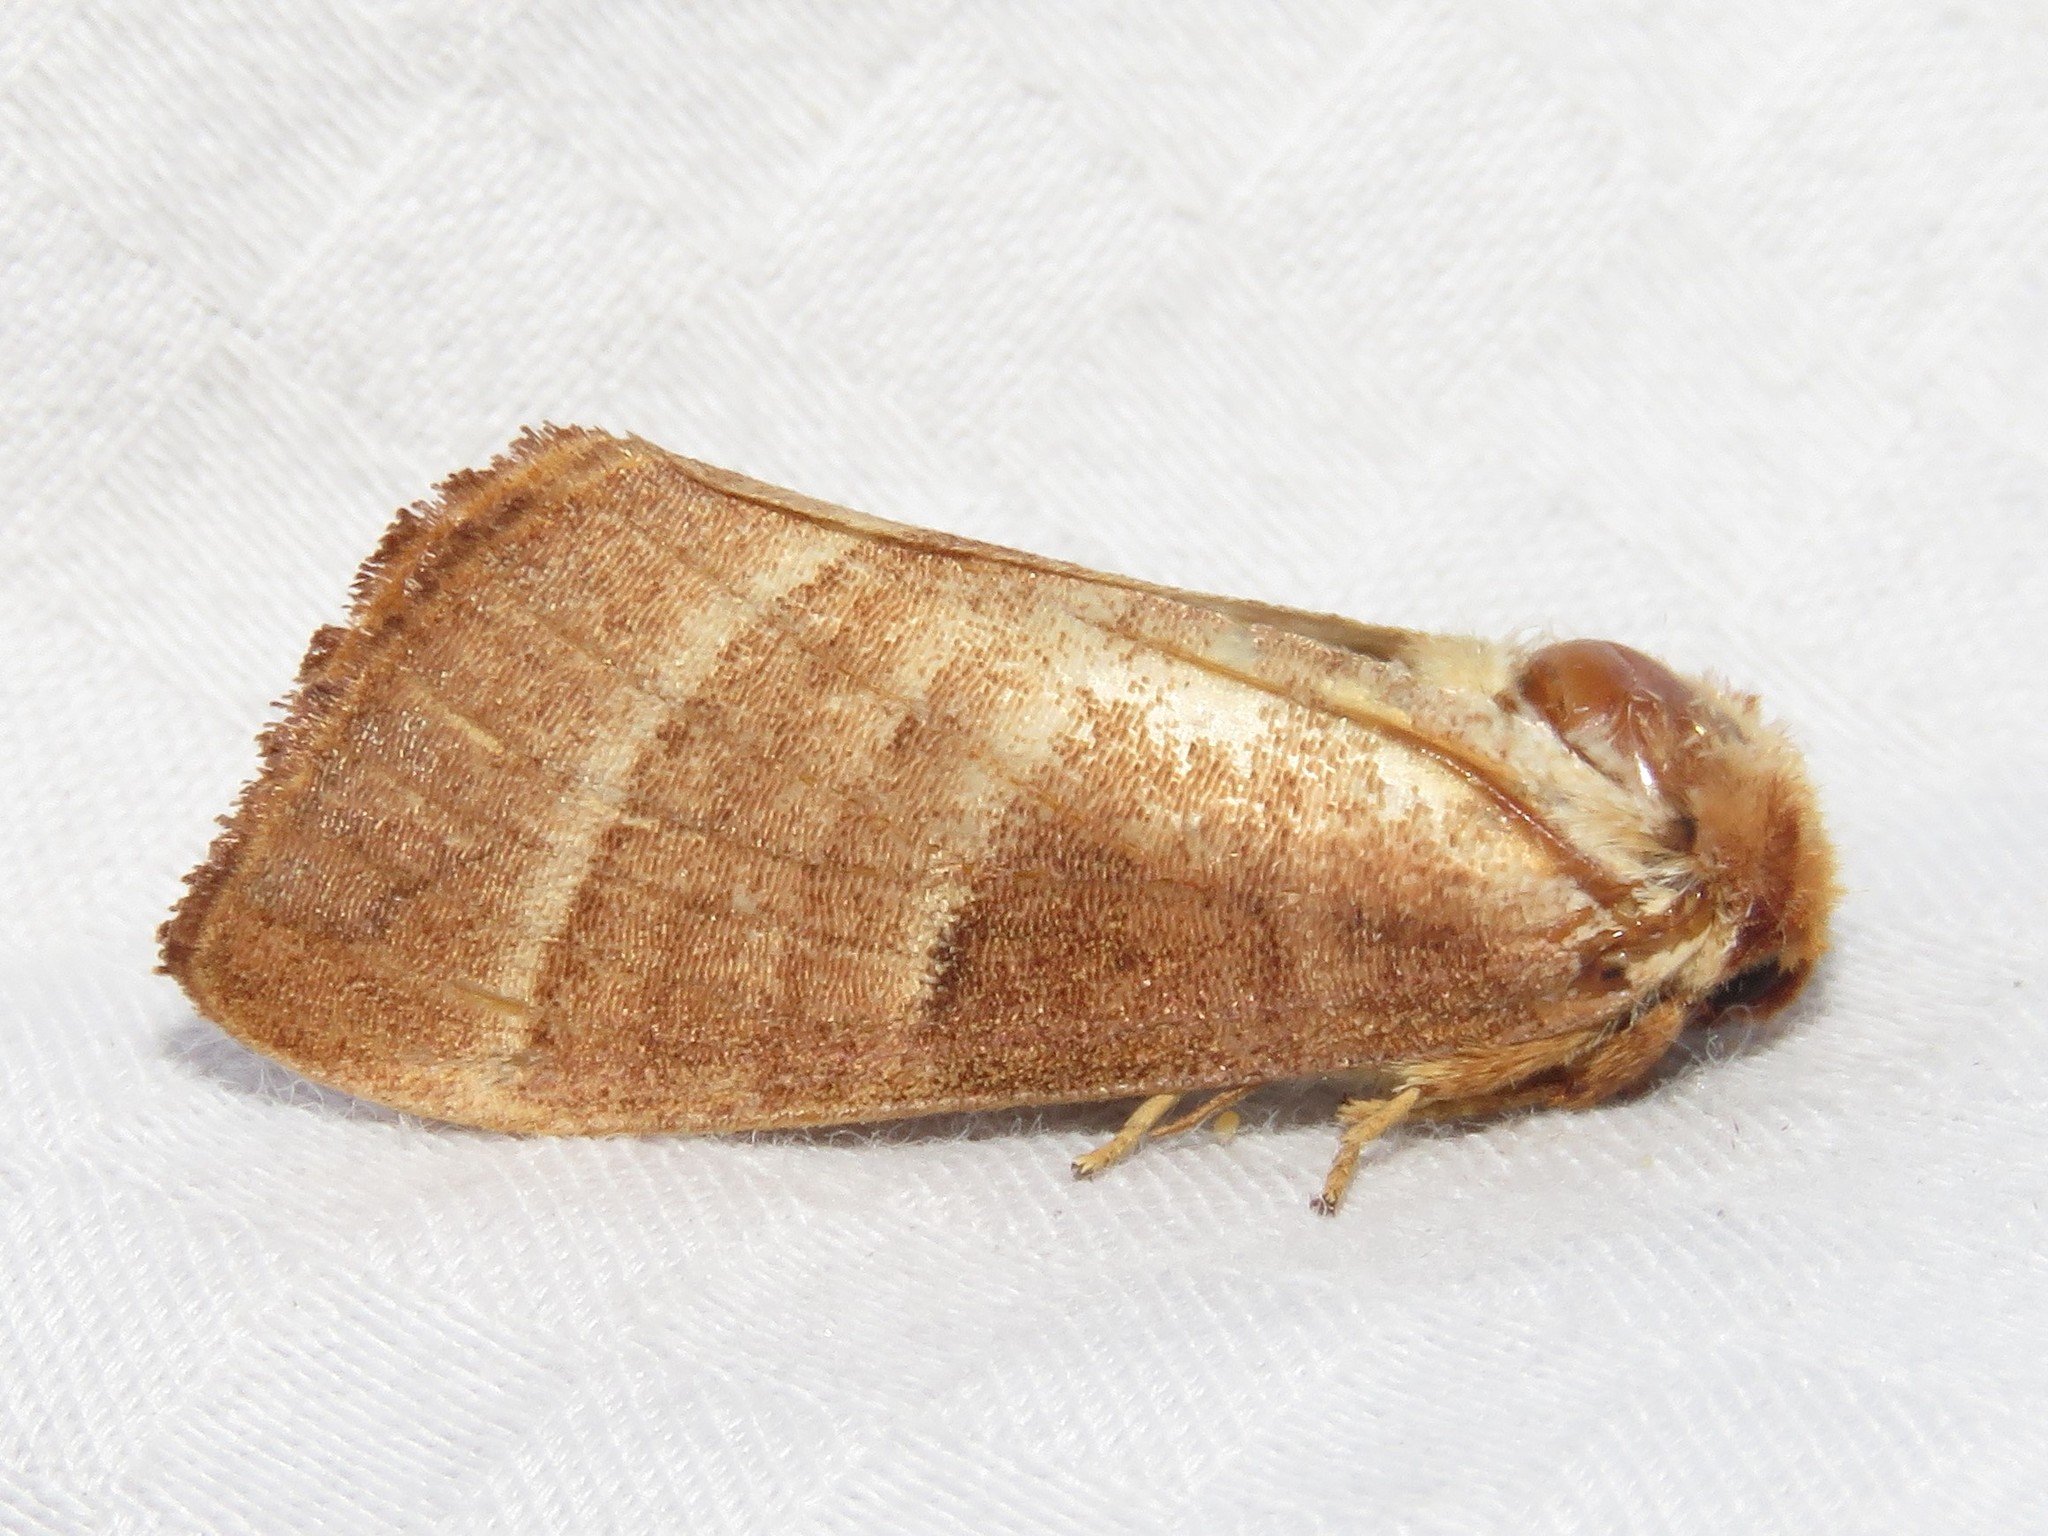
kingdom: Animalia
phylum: Arthropoda
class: Insecta
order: Lepidoptera
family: Notodontidae
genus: Datana
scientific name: Datana integerrima
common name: Walnut caterpillar
